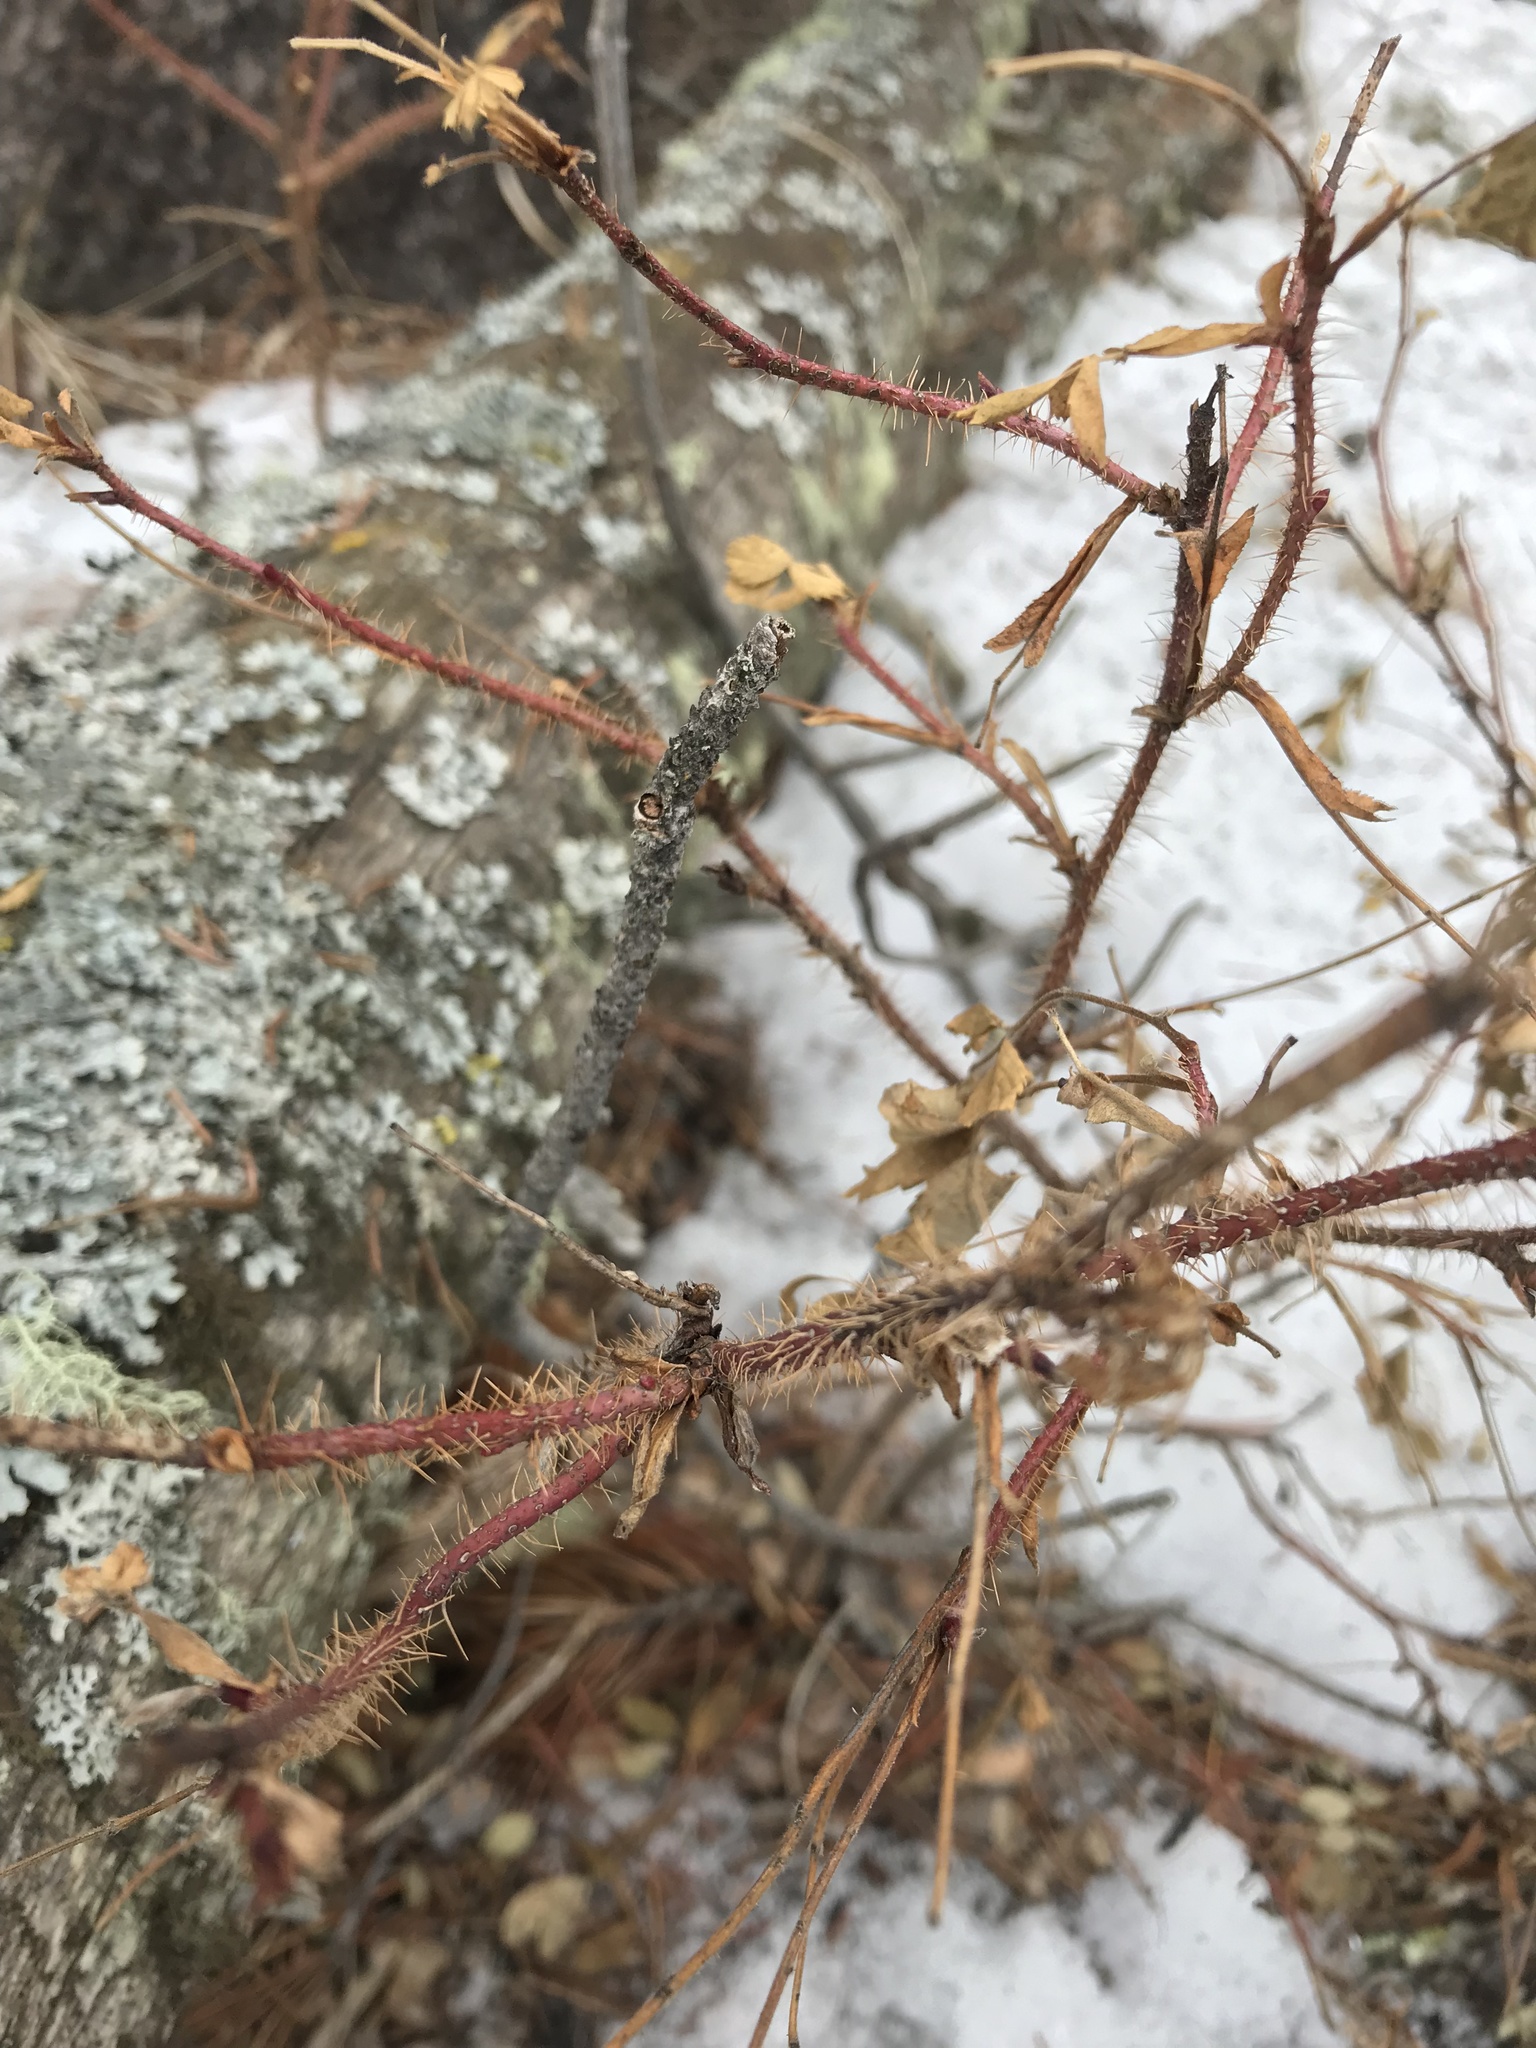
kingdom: Plantae
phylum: Tracheophyta
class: Magnoliopsida
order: Rosales
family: Rosaceae
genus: Rosa
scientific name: Rosa acicularis
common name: Prickly rose
